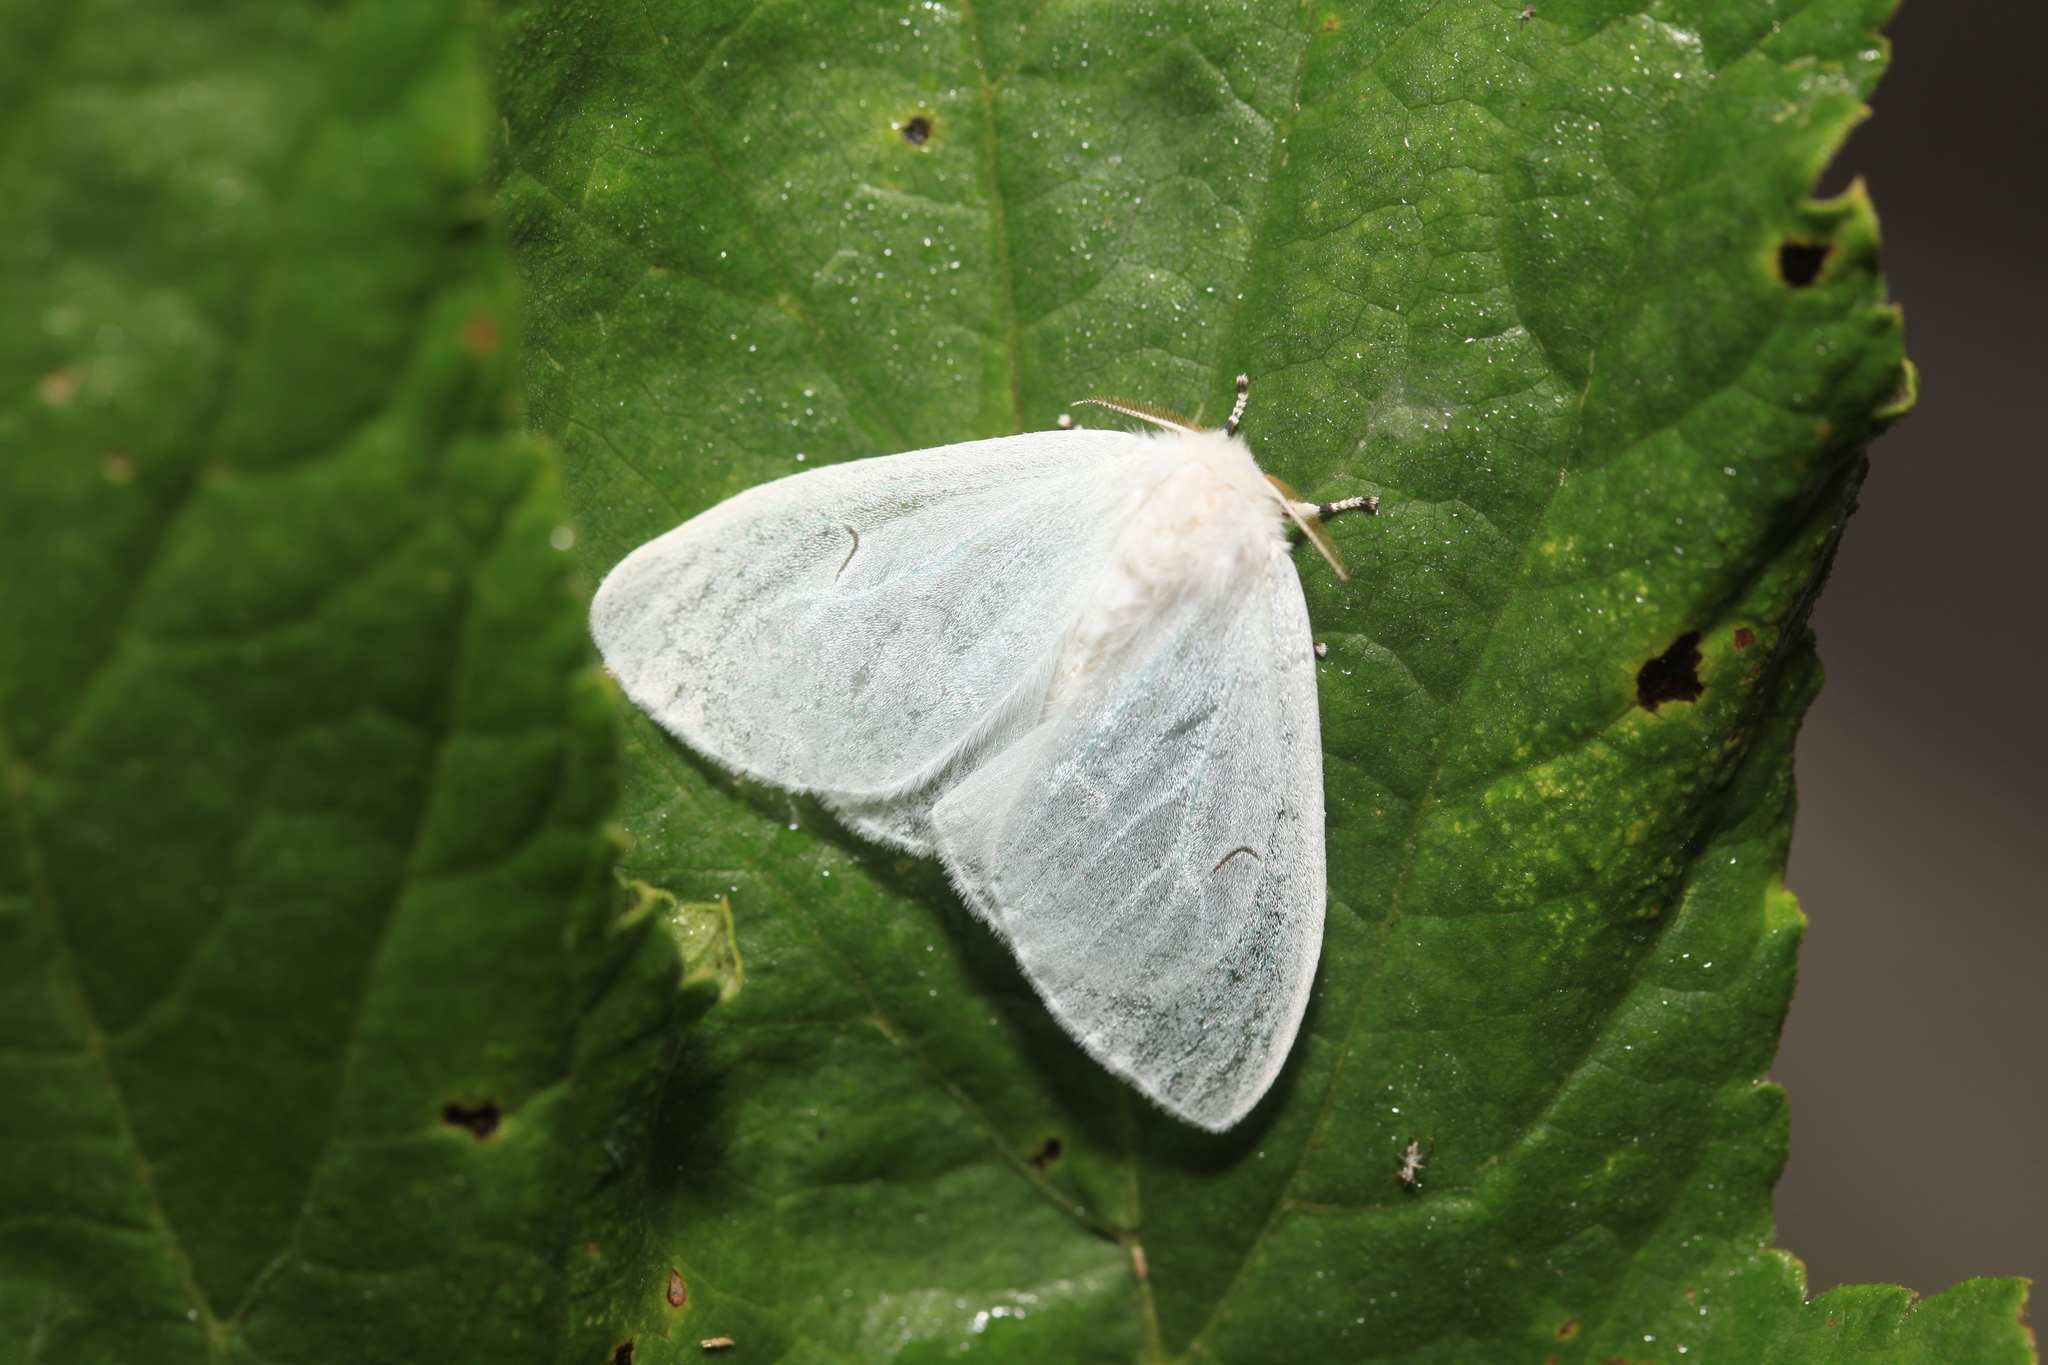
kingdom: Animalia
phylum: Arthropoda
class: Insecta
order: Lepidoptera
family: Erebidae
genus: Arctornis
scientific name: Arctornis l-nigrum
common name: Black v moth
